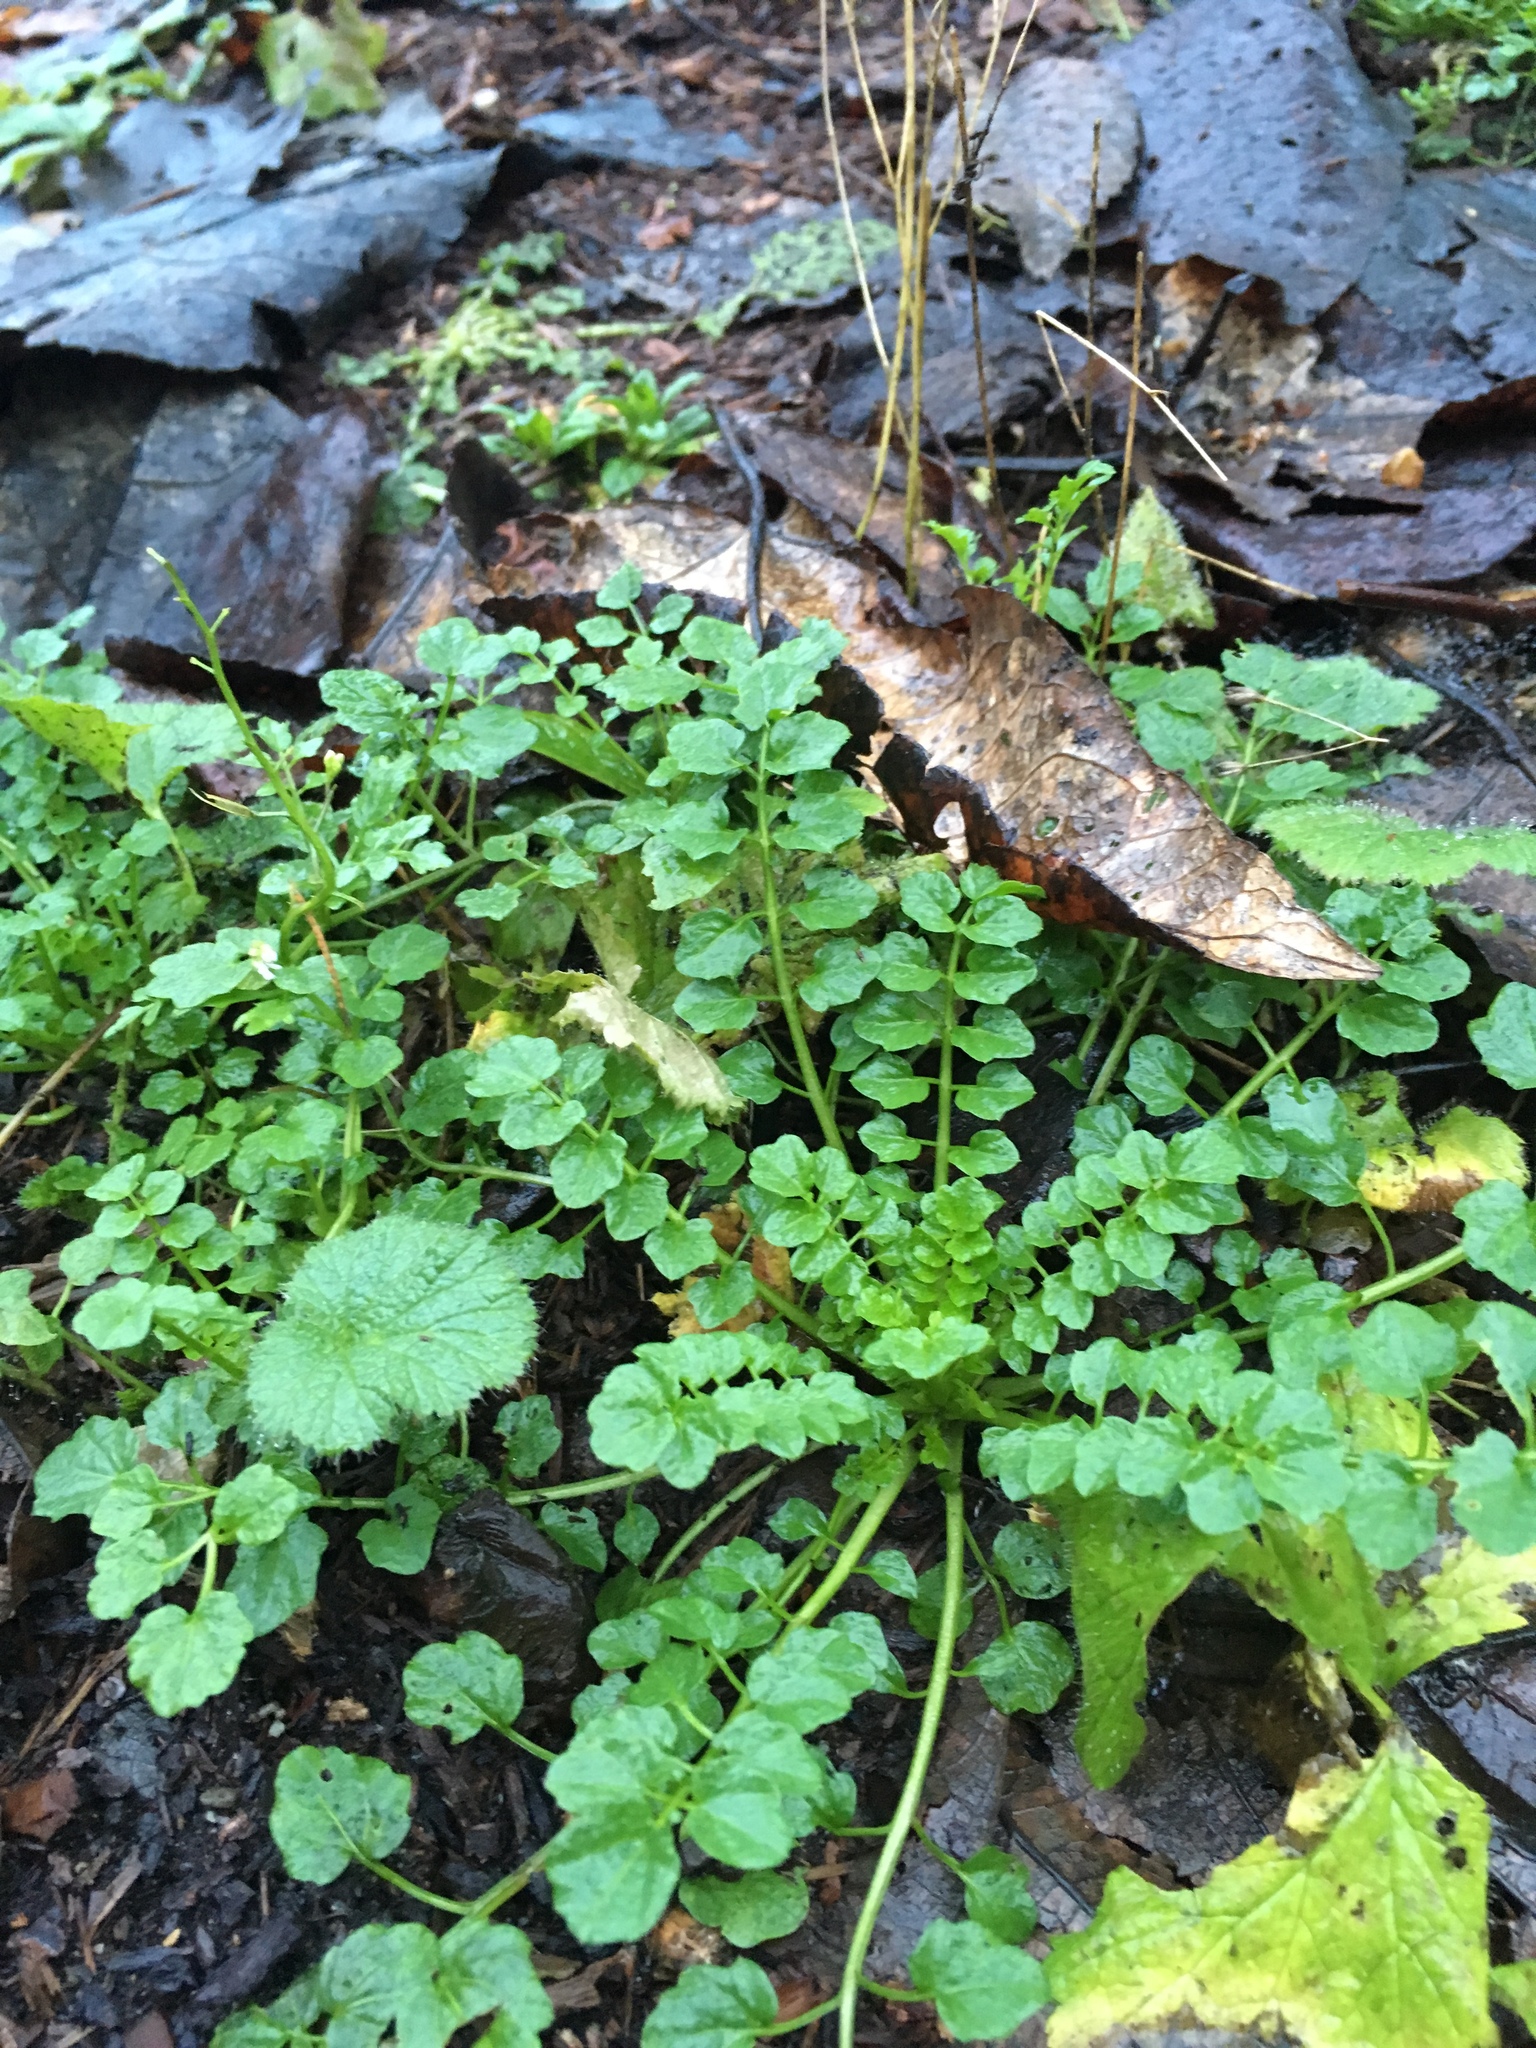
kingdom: Plantae
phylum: Tracheophyta
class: Magnoliopsida
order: Brassicales
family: Brassicaceae
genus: Cardamine
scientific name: Cardamine flexuosa
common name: Woodland bittercress
